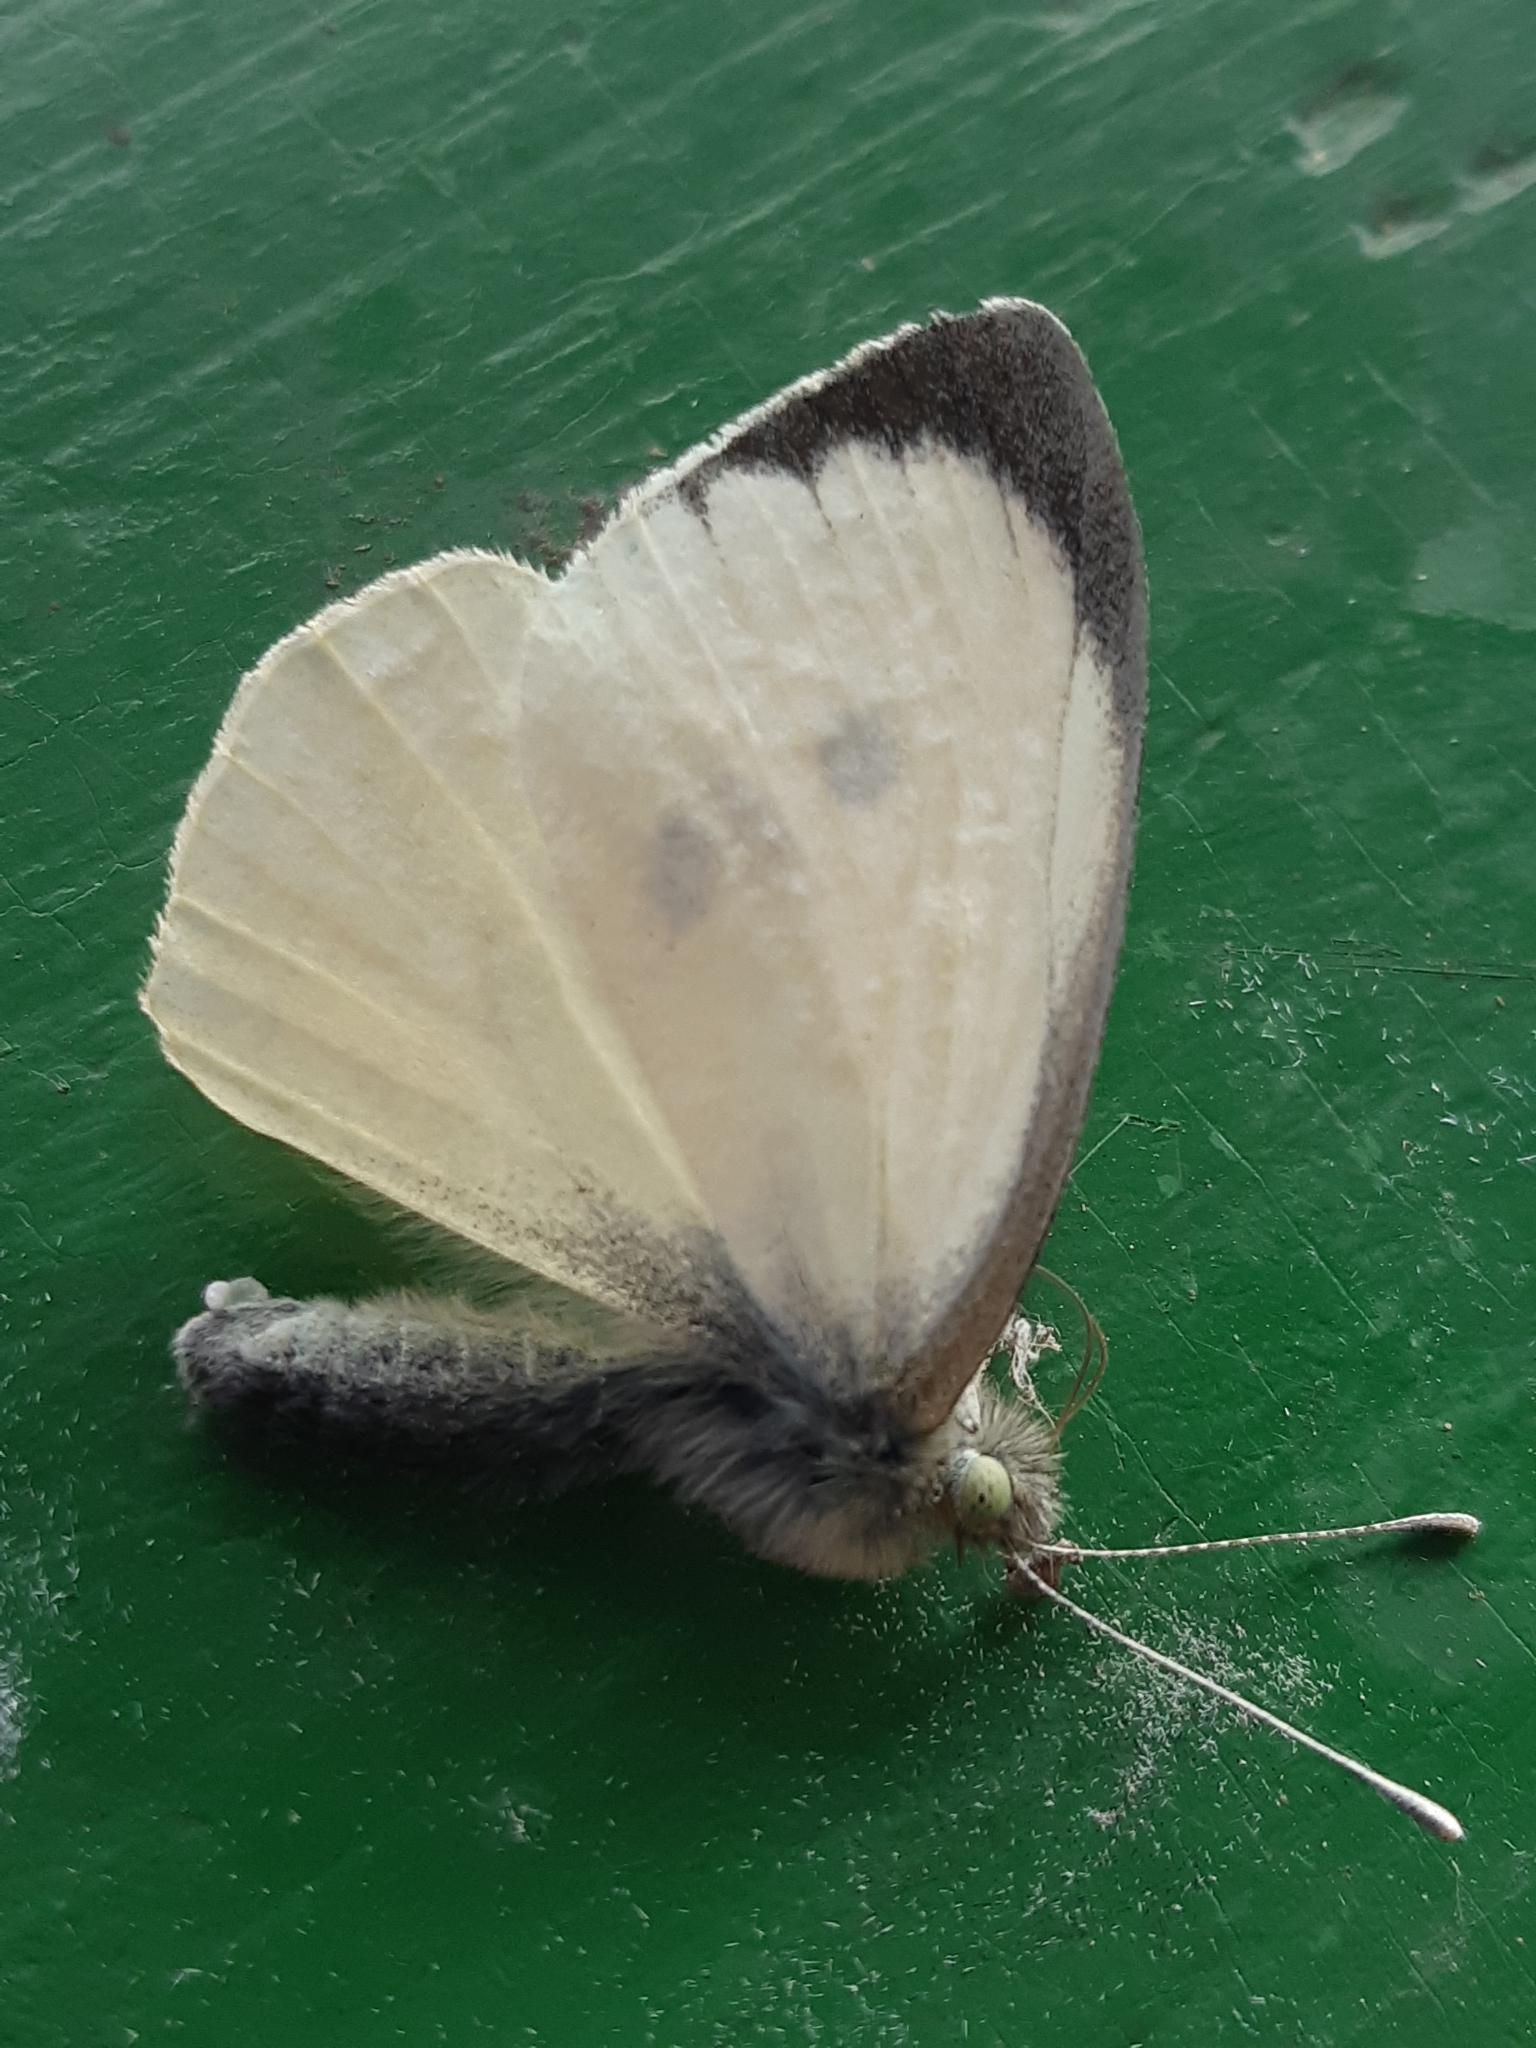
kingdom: Animalia
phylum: Arthropoda
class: Insecta
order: Lepidoptera
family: Pieridae
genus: Pieris
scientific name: Pieris brassicae
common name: Large white
